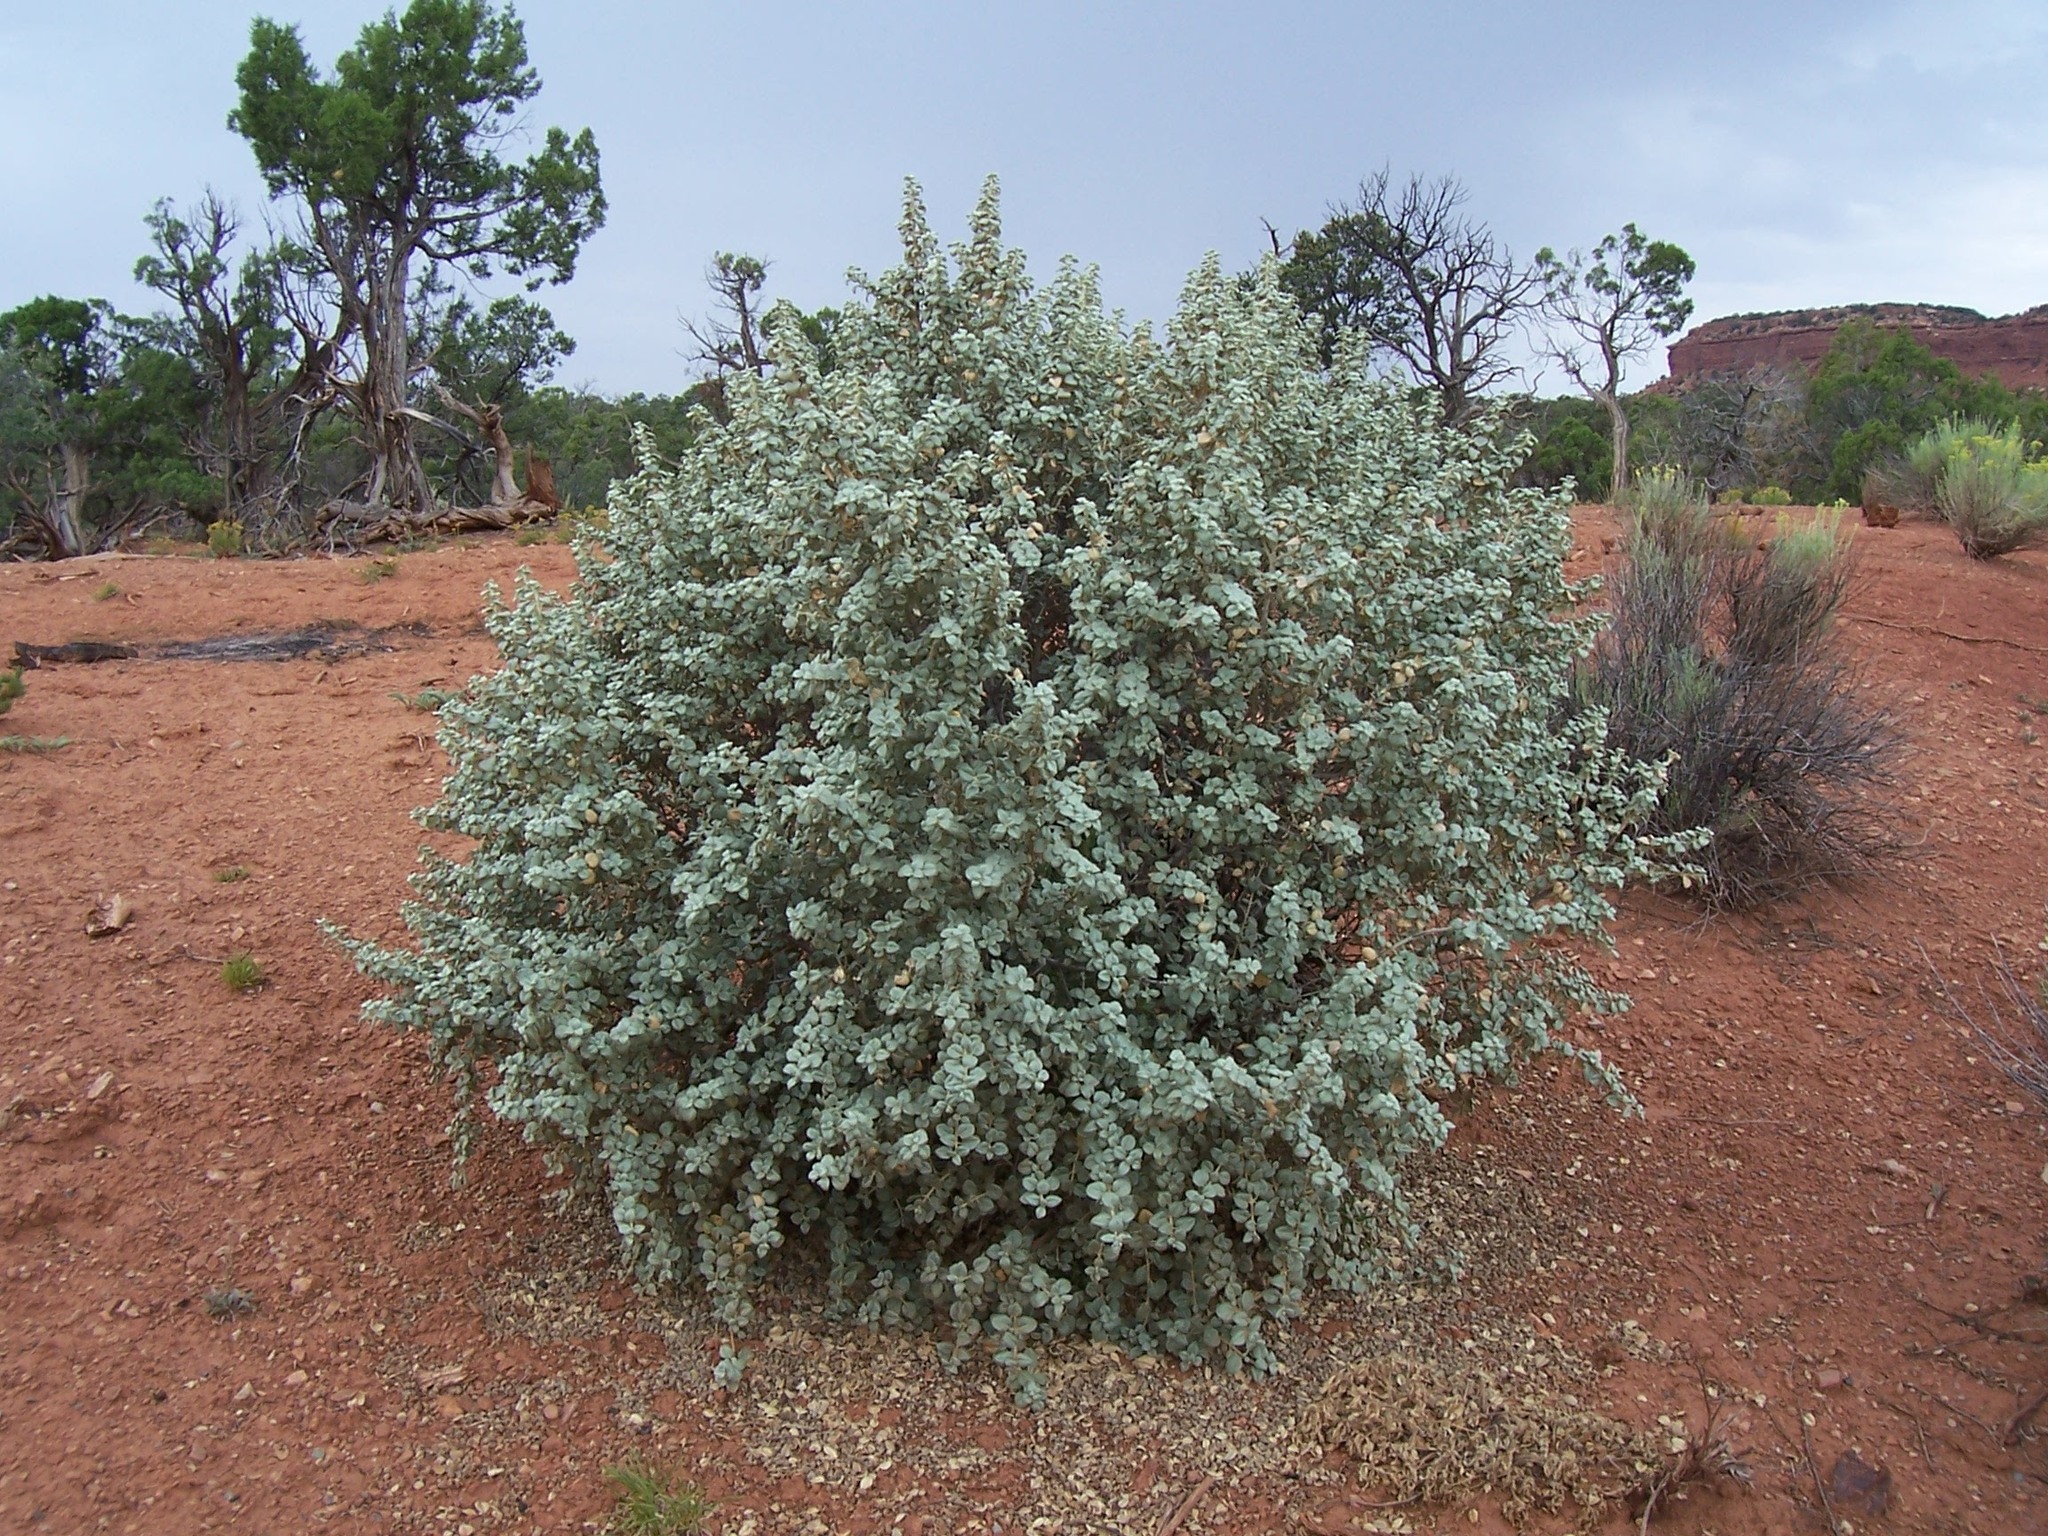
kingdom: Plantae
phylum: Tracheophyta
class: Magnoliopsida
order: Rosales
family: Elaeagnaceae
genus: Shepherdia
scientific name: Shepherdia rotundifolia
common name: Silverscale
